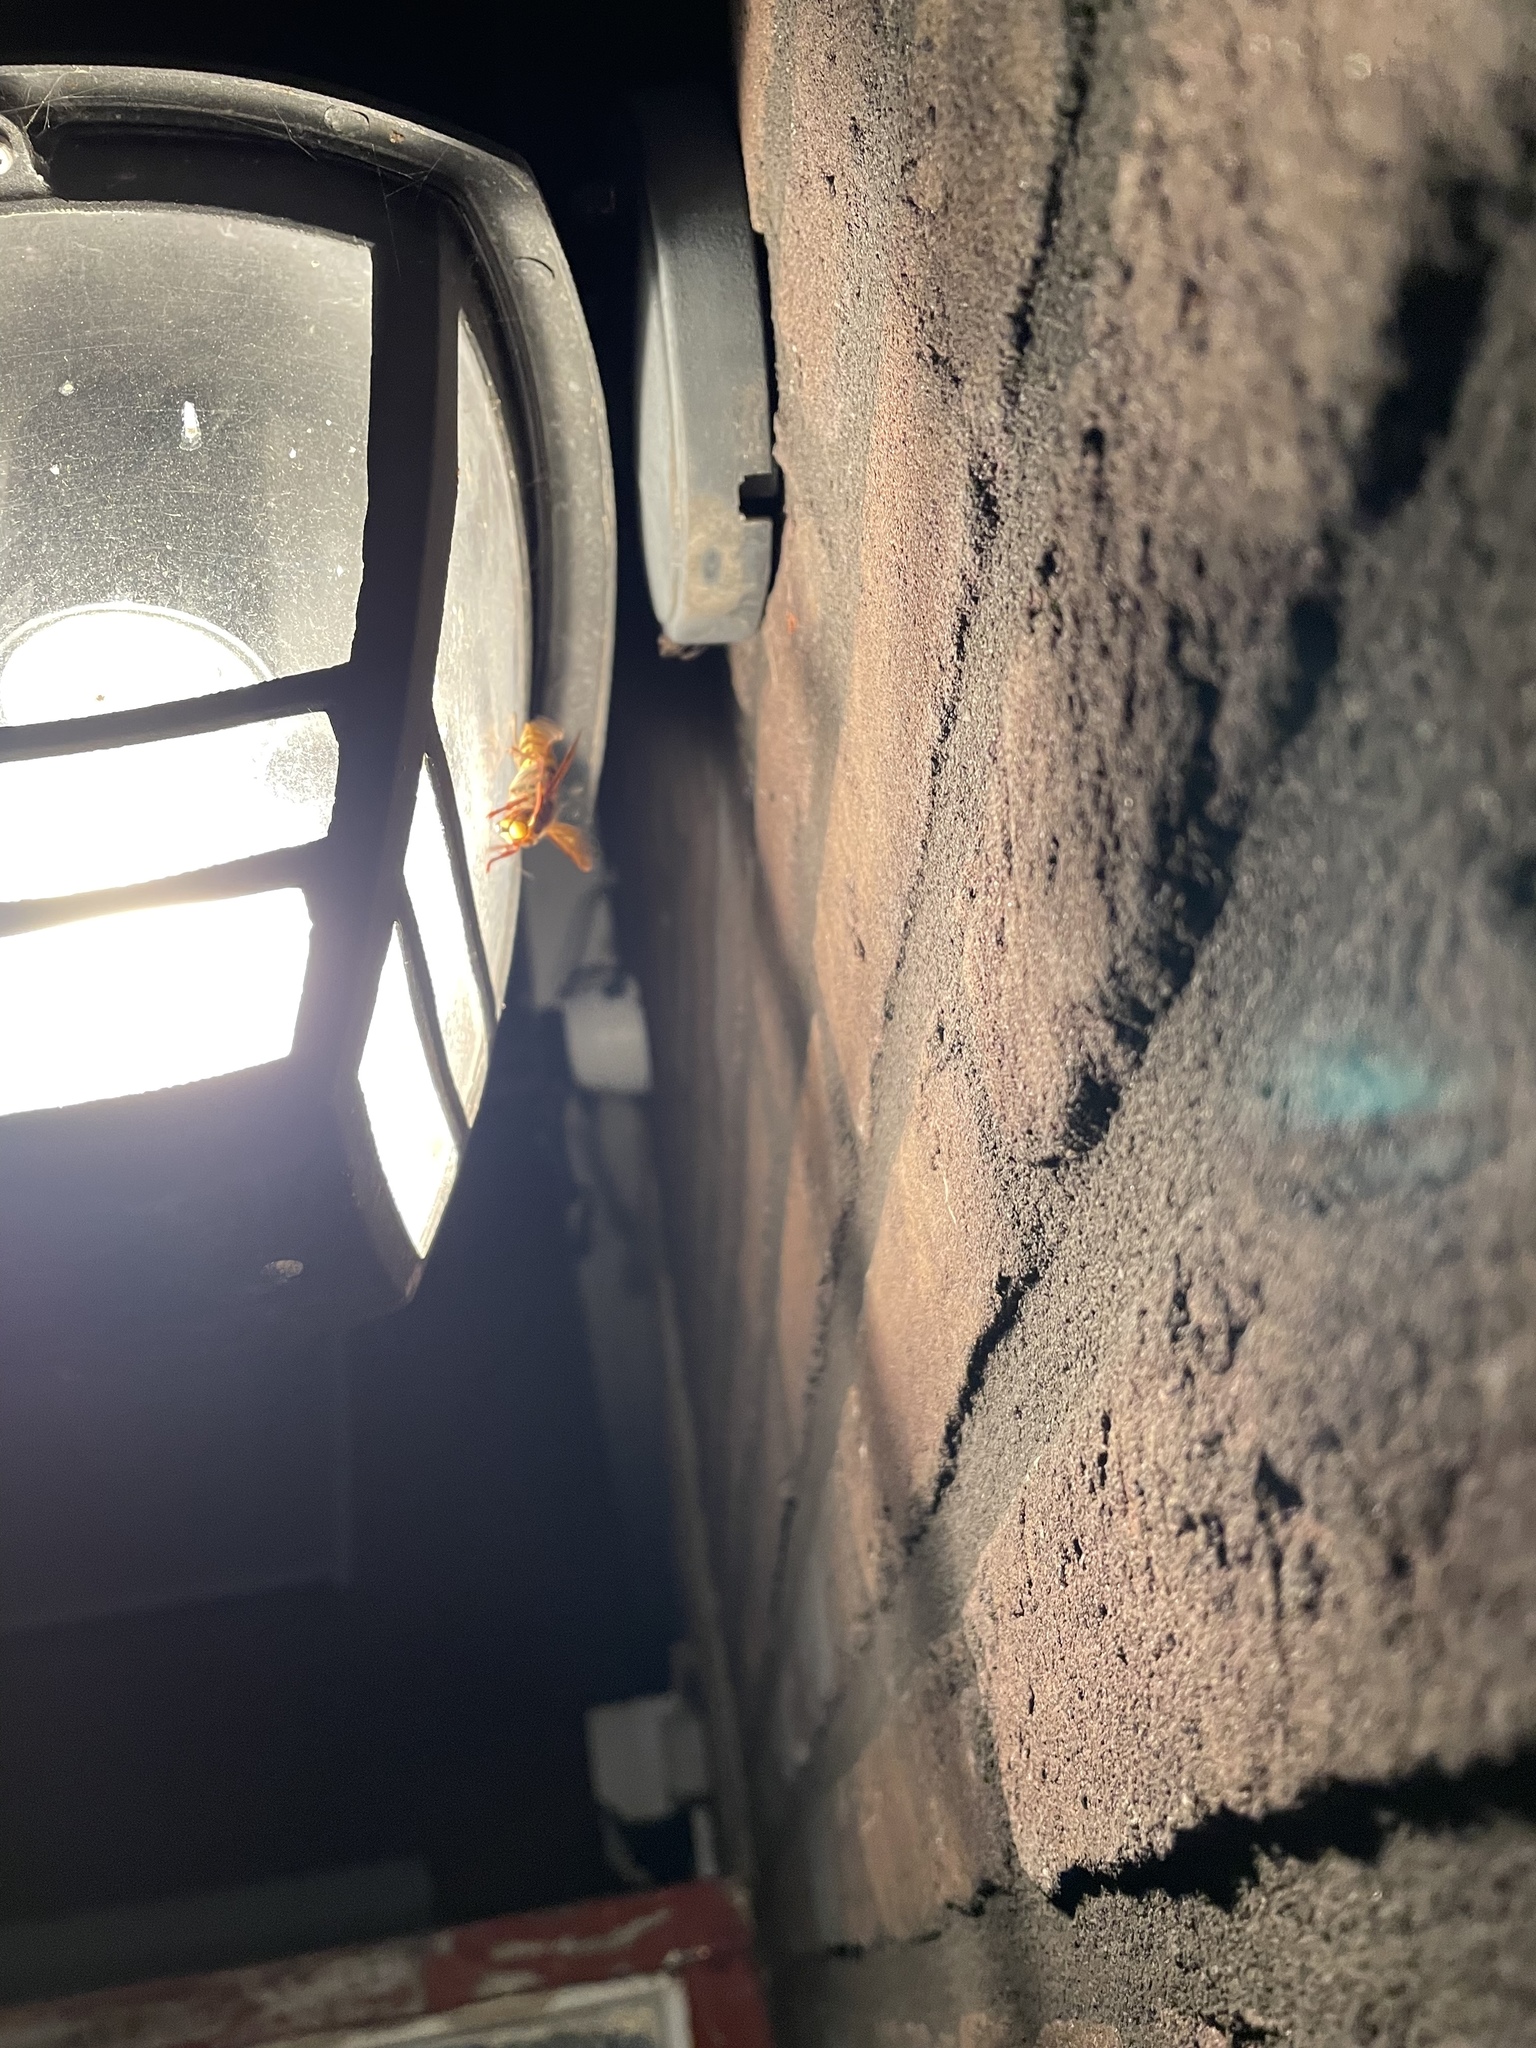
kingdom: Animalia
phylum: Arthropoda
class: Insecta
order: Hymenoptera
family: Vespidae
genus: Vespa
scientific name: Vespa crabro
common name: Hornet
